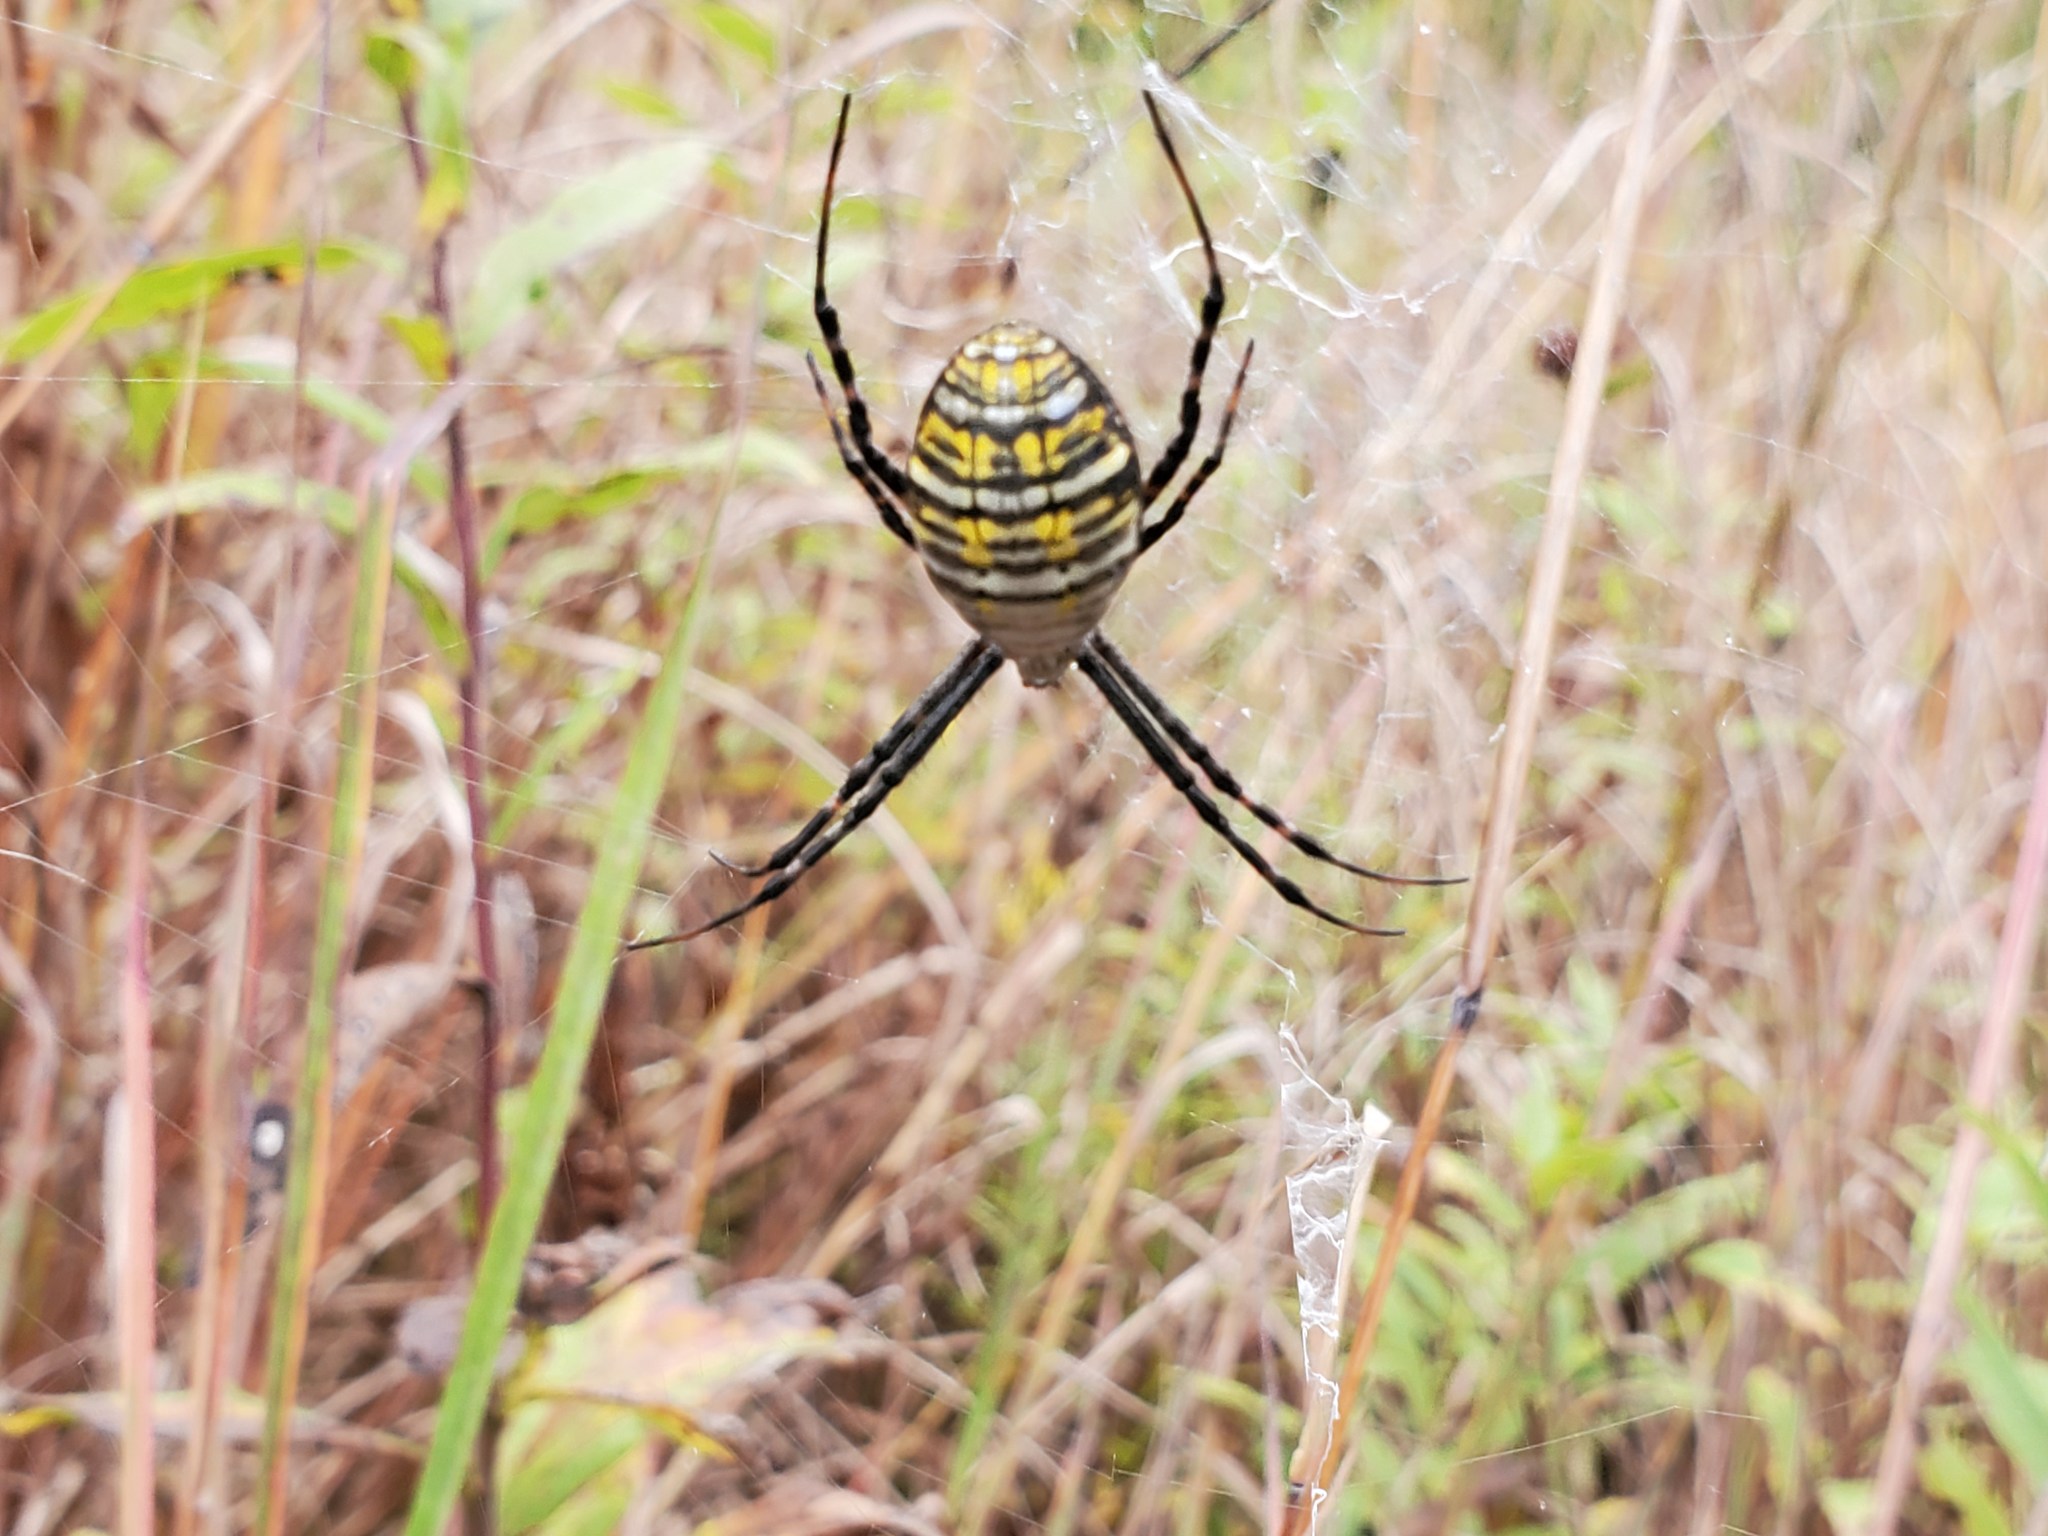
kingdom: Animalia
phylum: Arthropoda
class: Arachnida
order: Araneae
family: Araneidae
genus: Argiope
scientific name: Argiope trifasciata
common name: Banded garden spider
